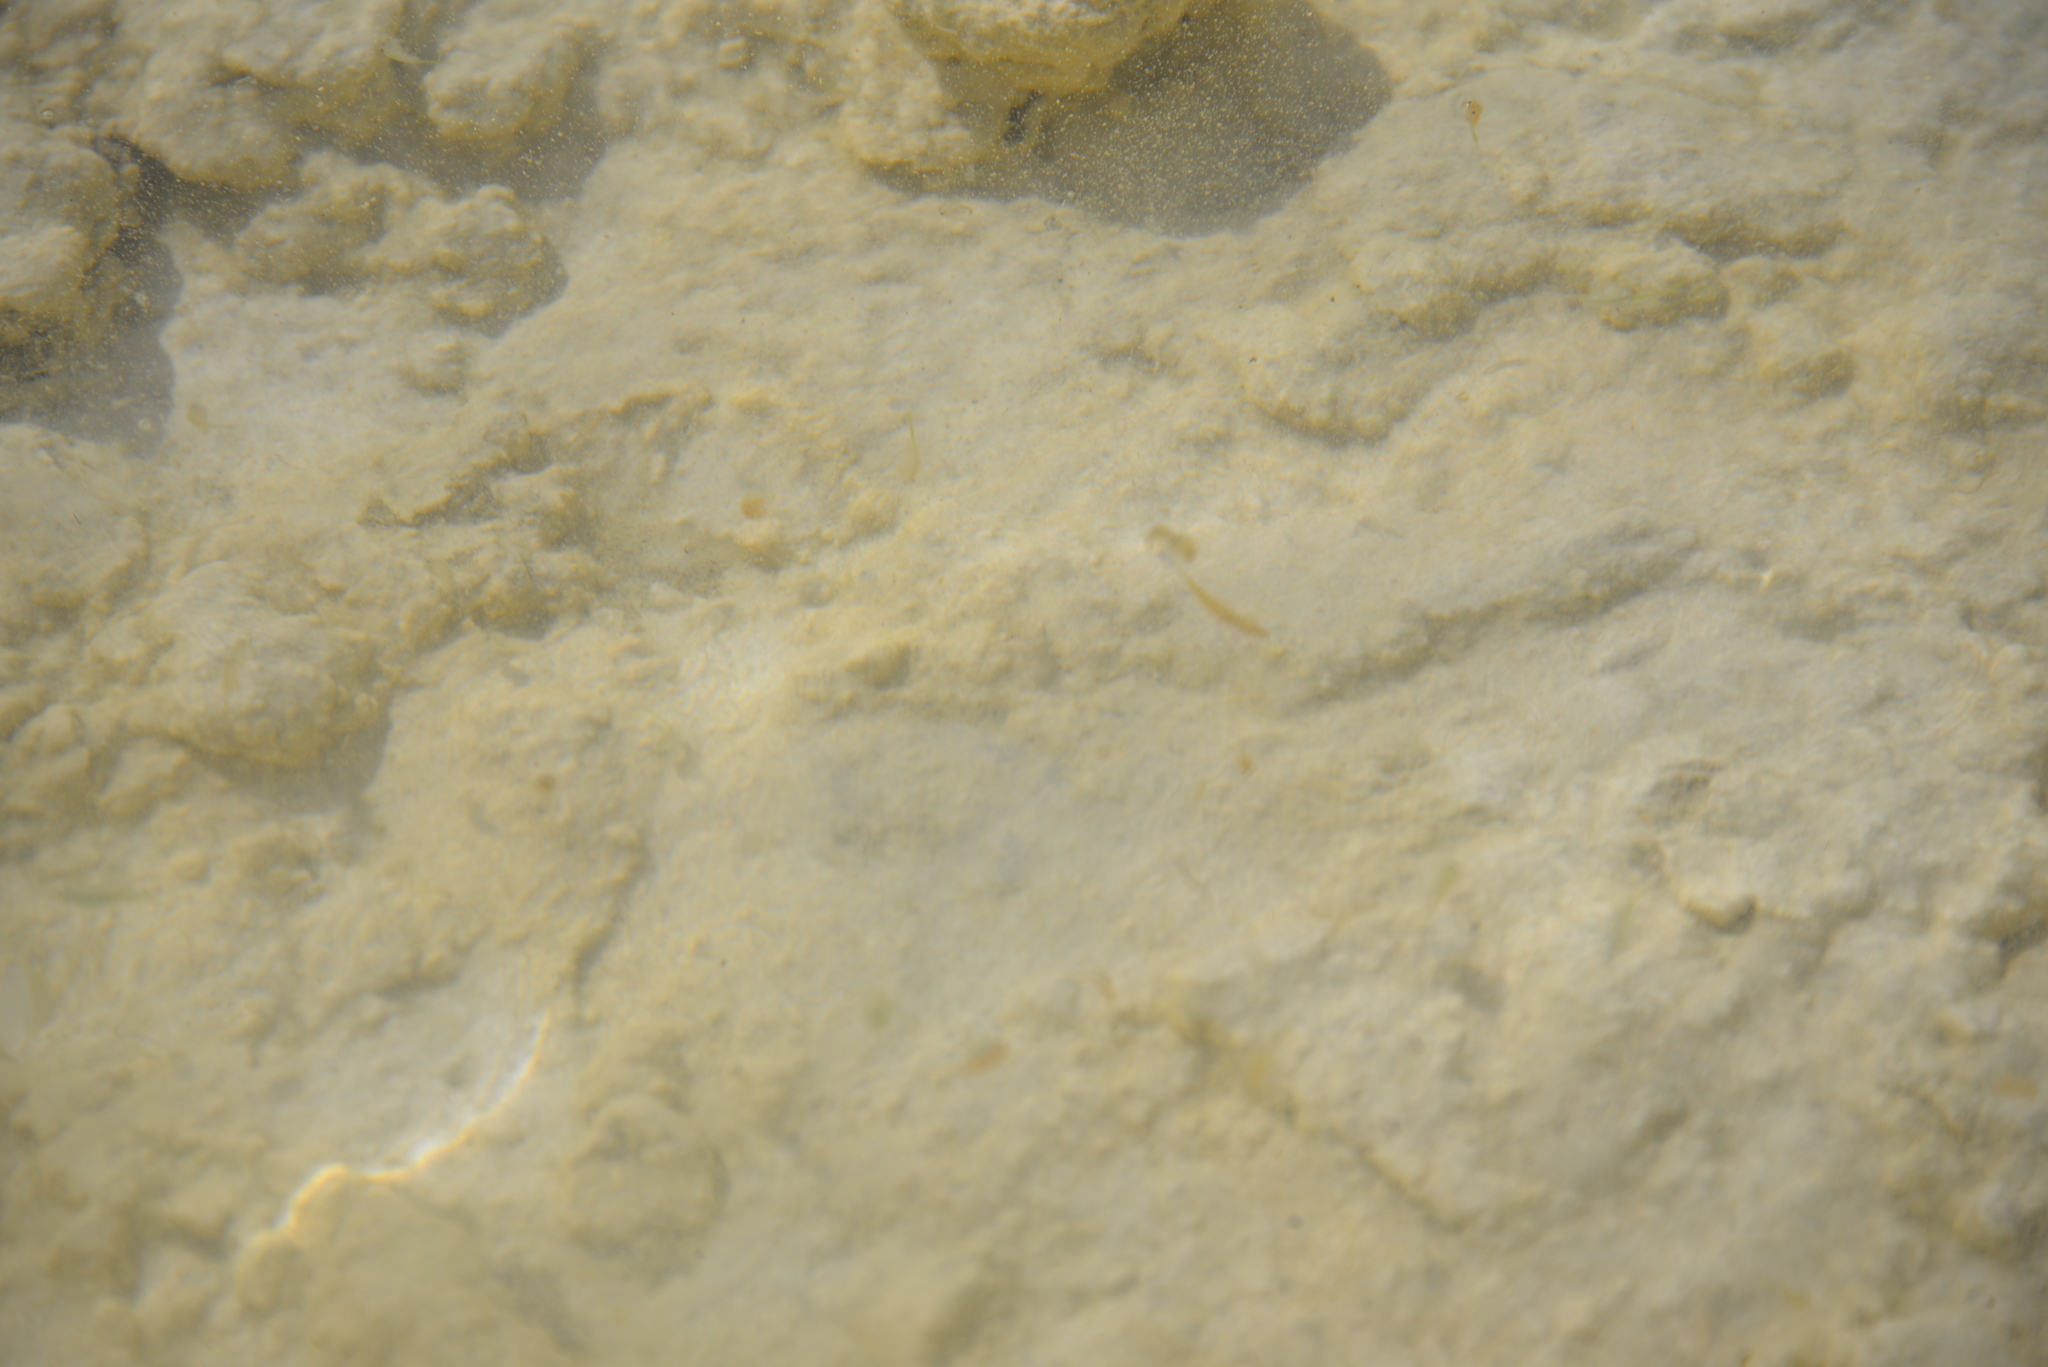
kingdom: Animalia
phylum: Arthropoda
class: Branchiopoda
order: Anostraca
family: Artemiidae
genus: Artemia
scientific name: Artemia monica
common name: Mono lake brine shrimp
